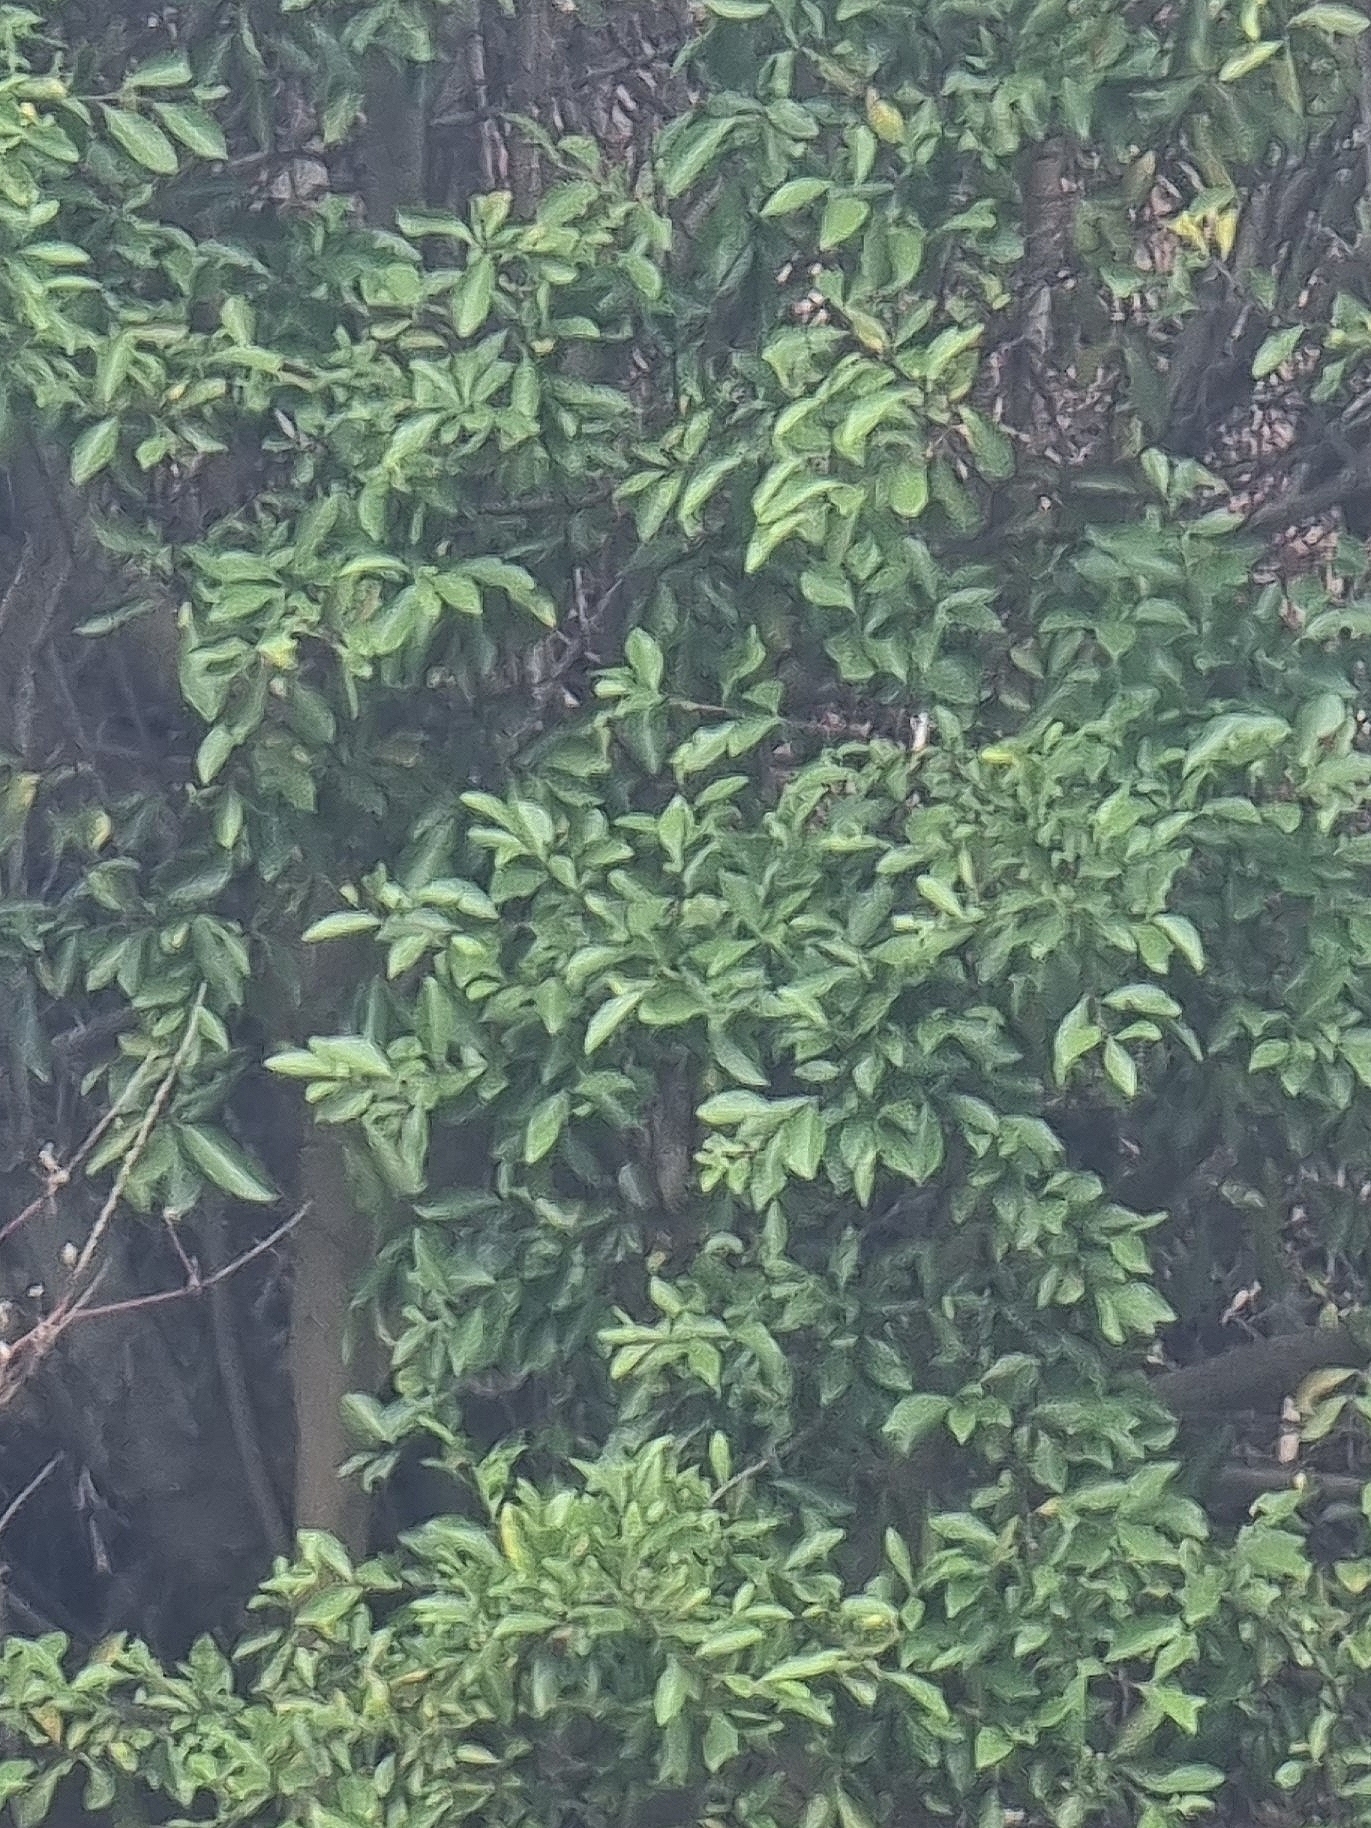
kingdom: Plantae
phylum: Tracheophyta
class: Magnoliopsida
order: Celastrales
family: Celastraceae
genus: Gymnosporia
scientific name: Gymnosporia dryandri
